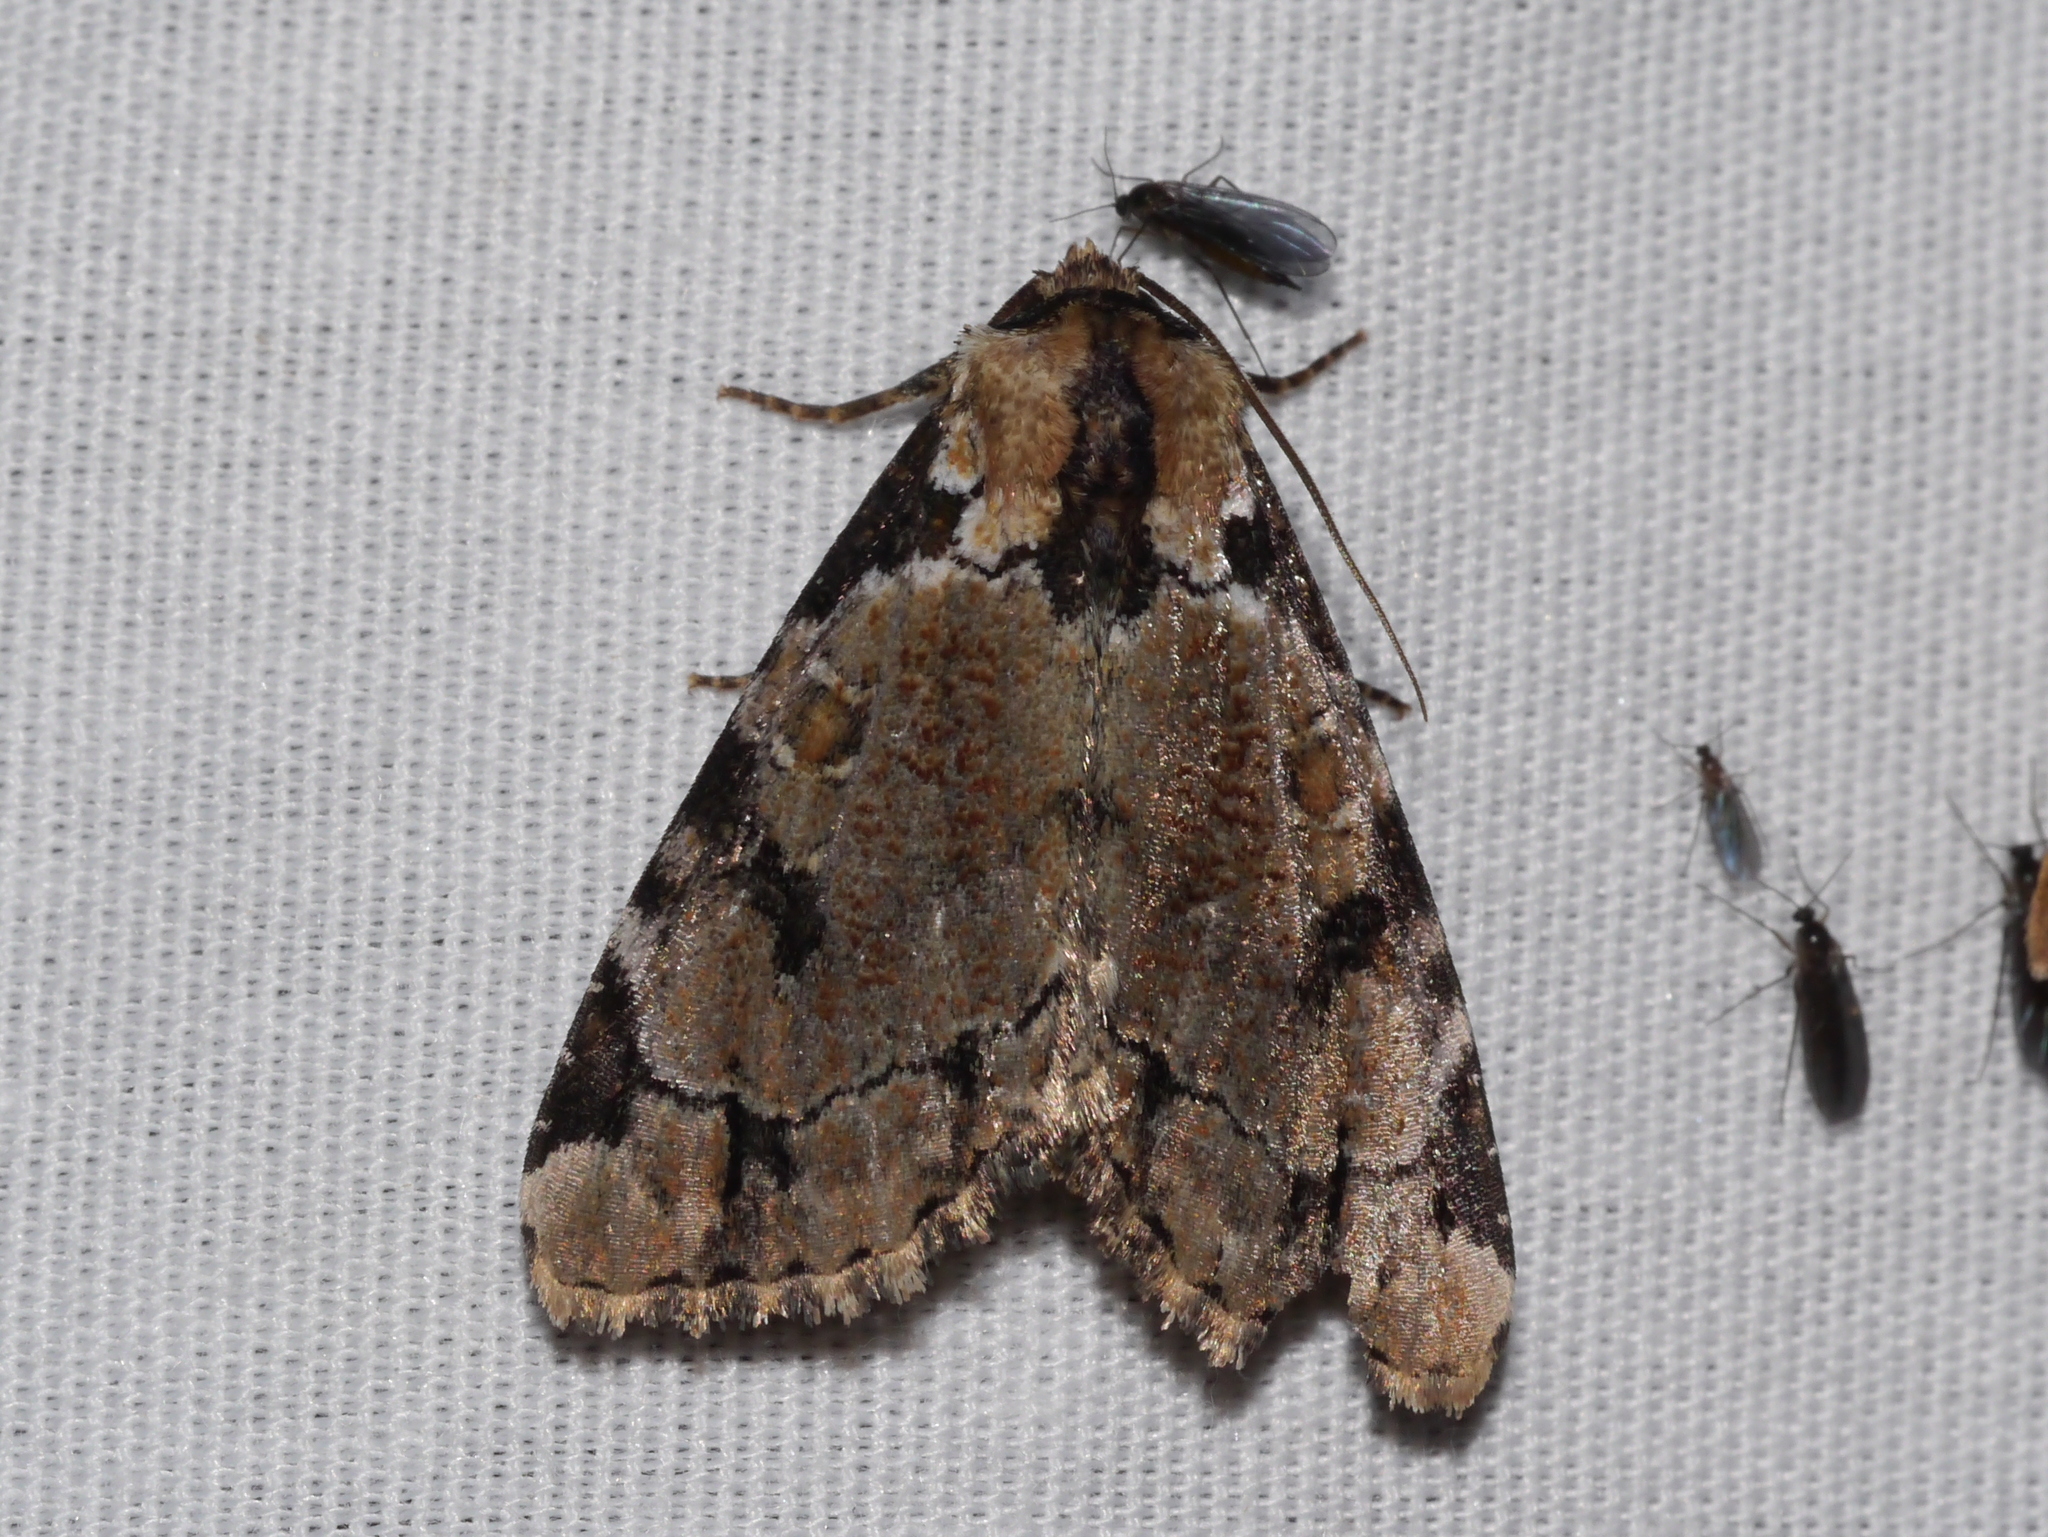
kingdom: Animalia
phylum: Arthropoda
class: Insecta
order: Lepidoptera
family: Noctuidae
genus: Stibaera
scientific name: Stibaera thyatiroides
